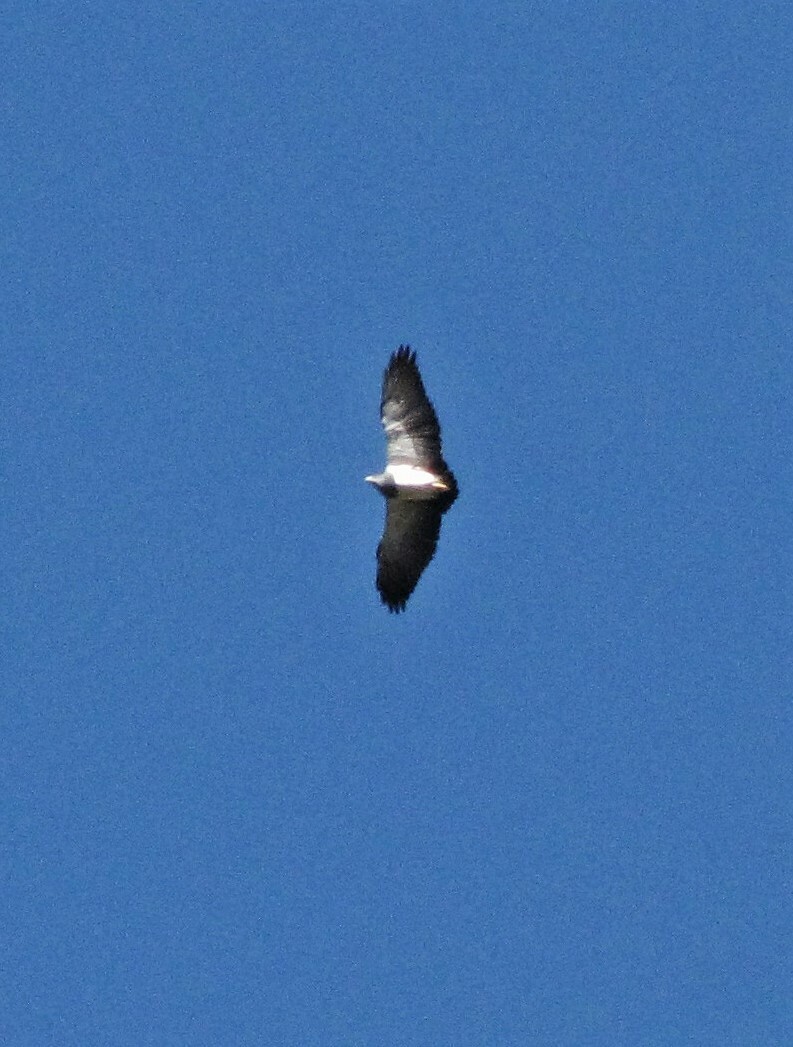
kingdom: Animalia
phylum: Chordata
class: Aves
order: Accipitriformes
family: Accipitridae
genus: Geranoaetus
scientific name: Geranoaetus melanoleucus
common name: Black-chested buzzard-eagle
